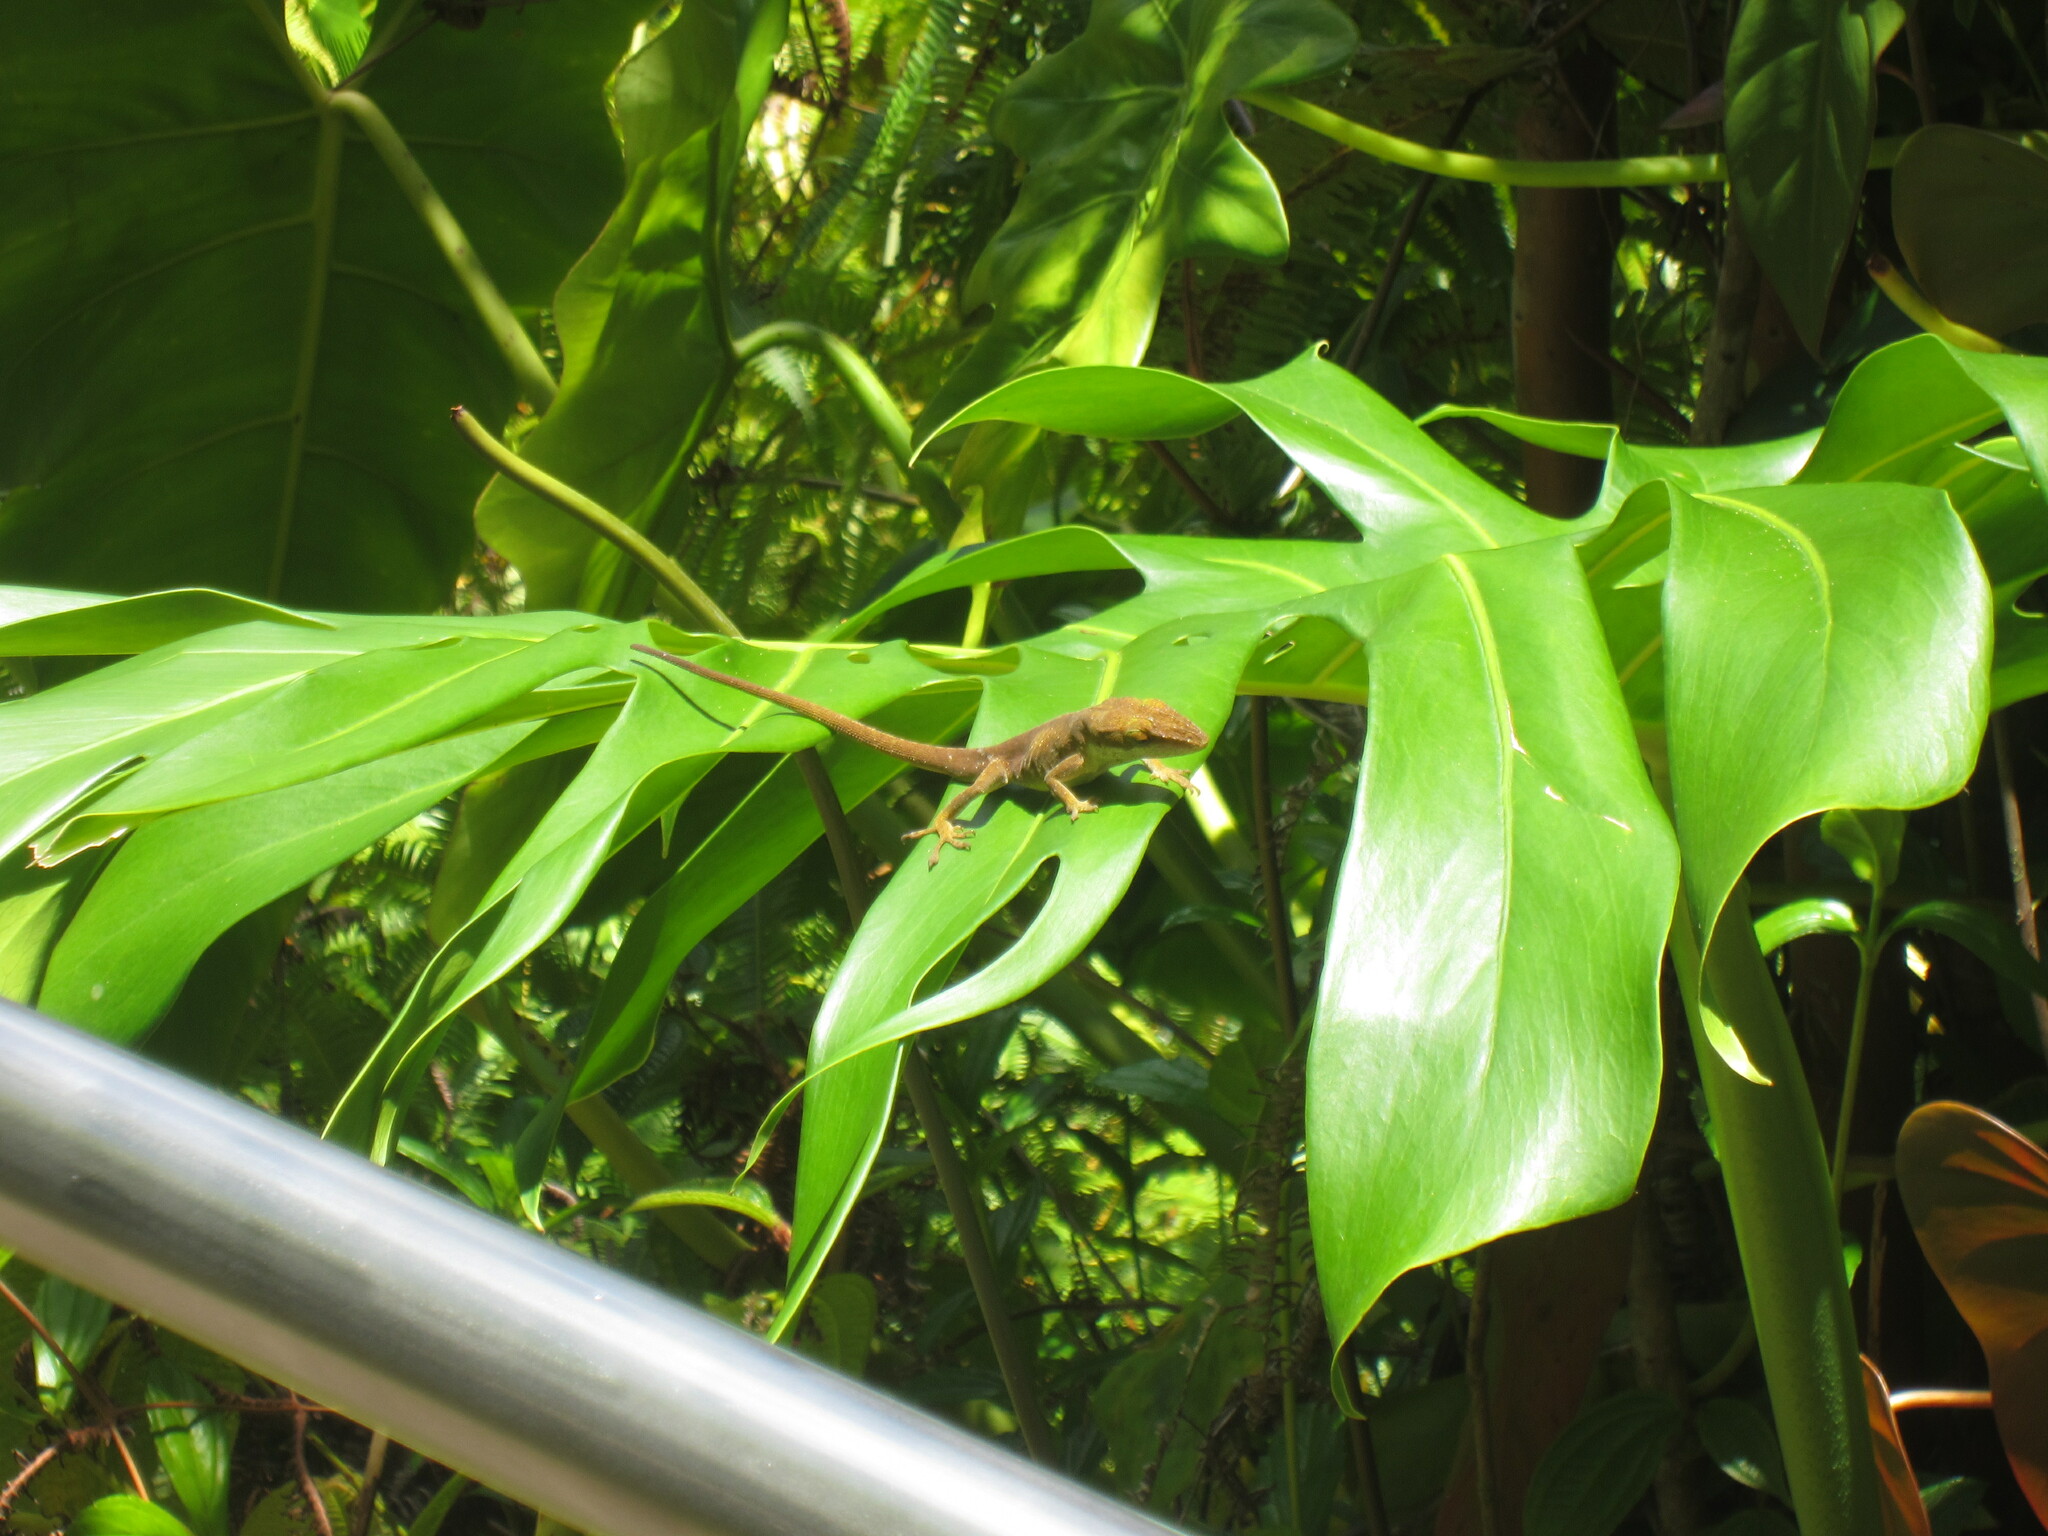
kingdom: Animalia
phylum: Chordata
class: Squamata
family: Dactyloidae
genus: Anolis
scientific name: Anolis carolinensis
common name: Green anole
